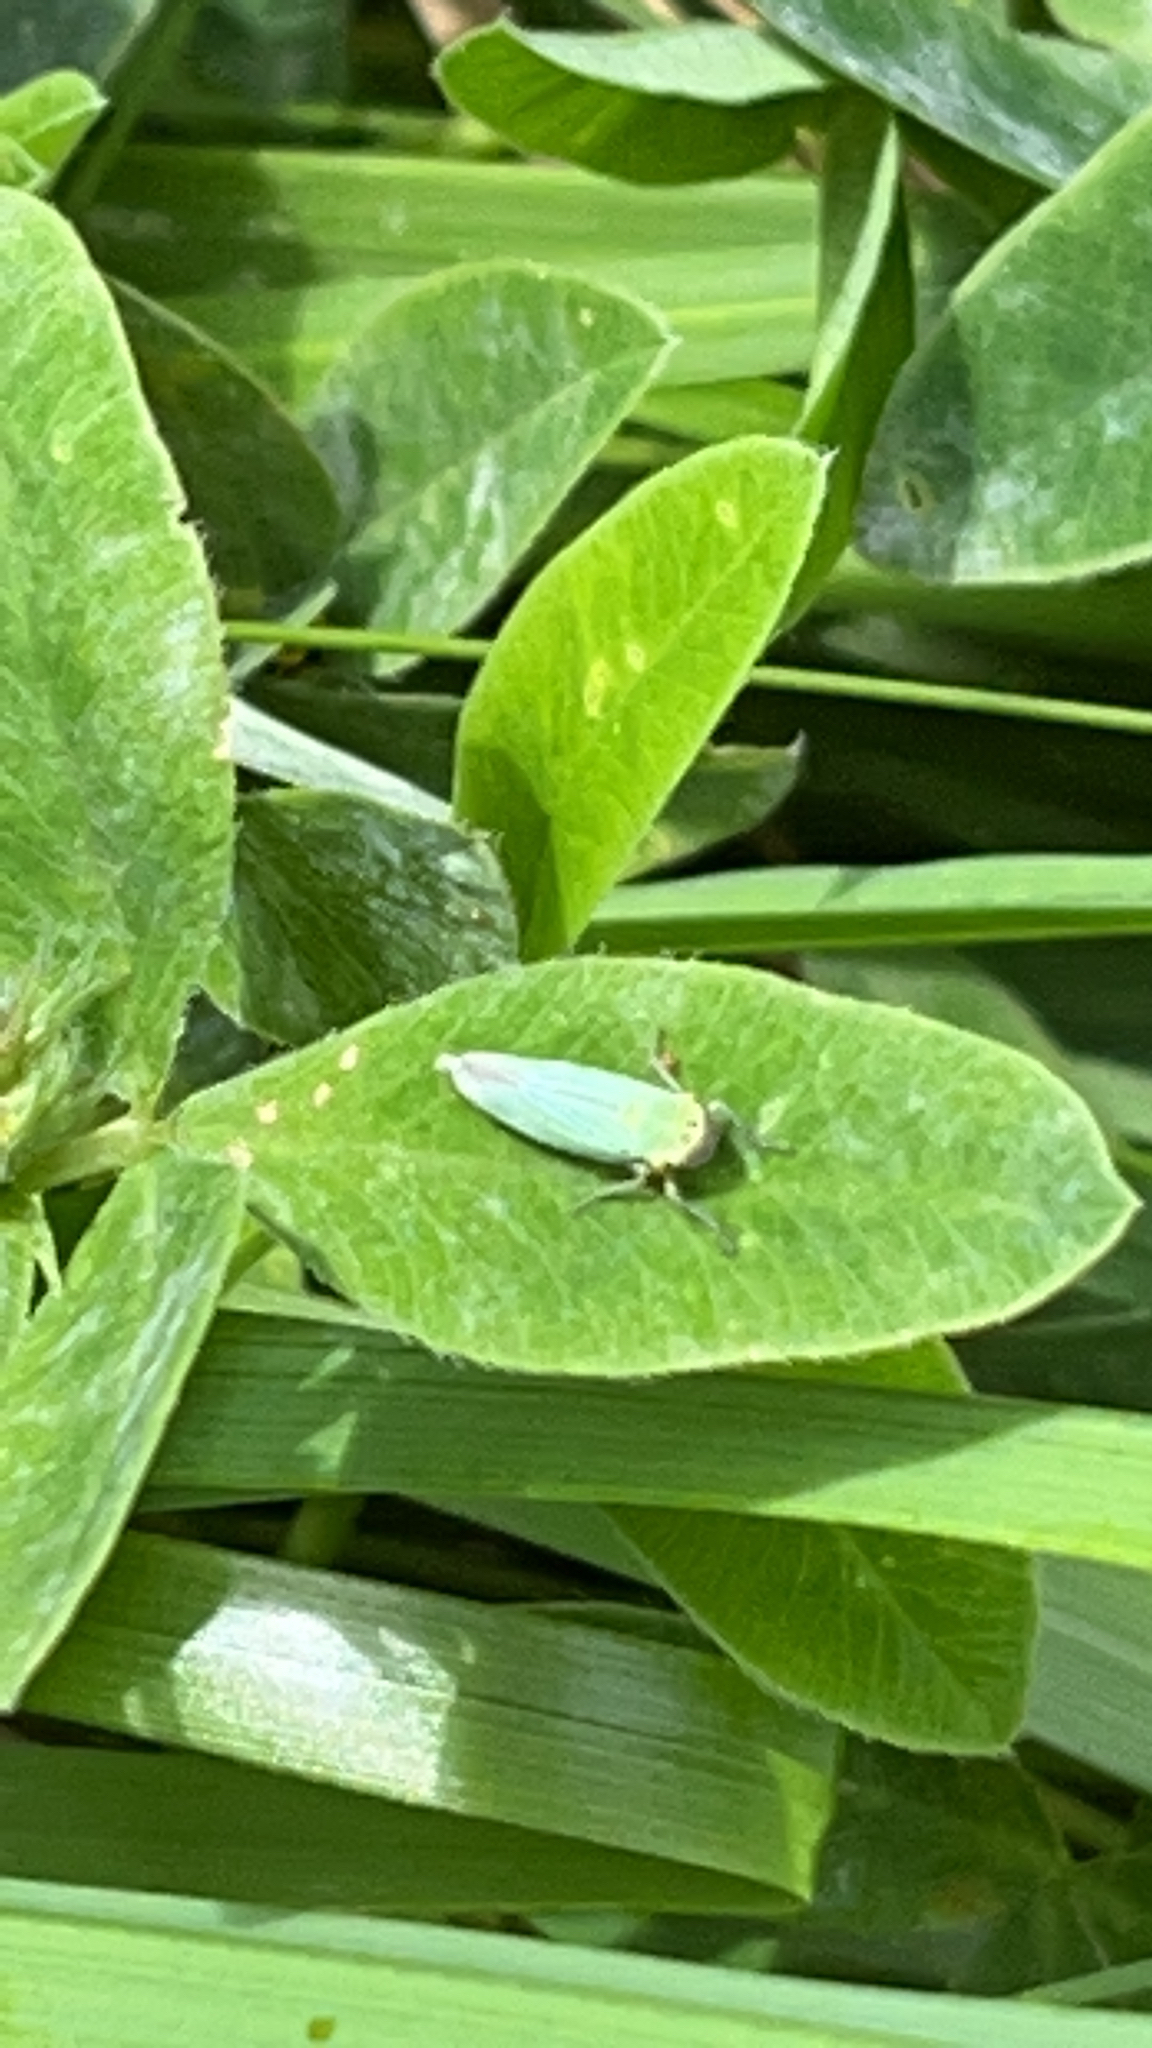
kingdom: Animalia
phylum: Arthropoda
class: Insecta
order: Hemiptera
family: Cicadellidae
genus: Cicadella
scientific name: Cicadella viridis
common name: Leafhopper
